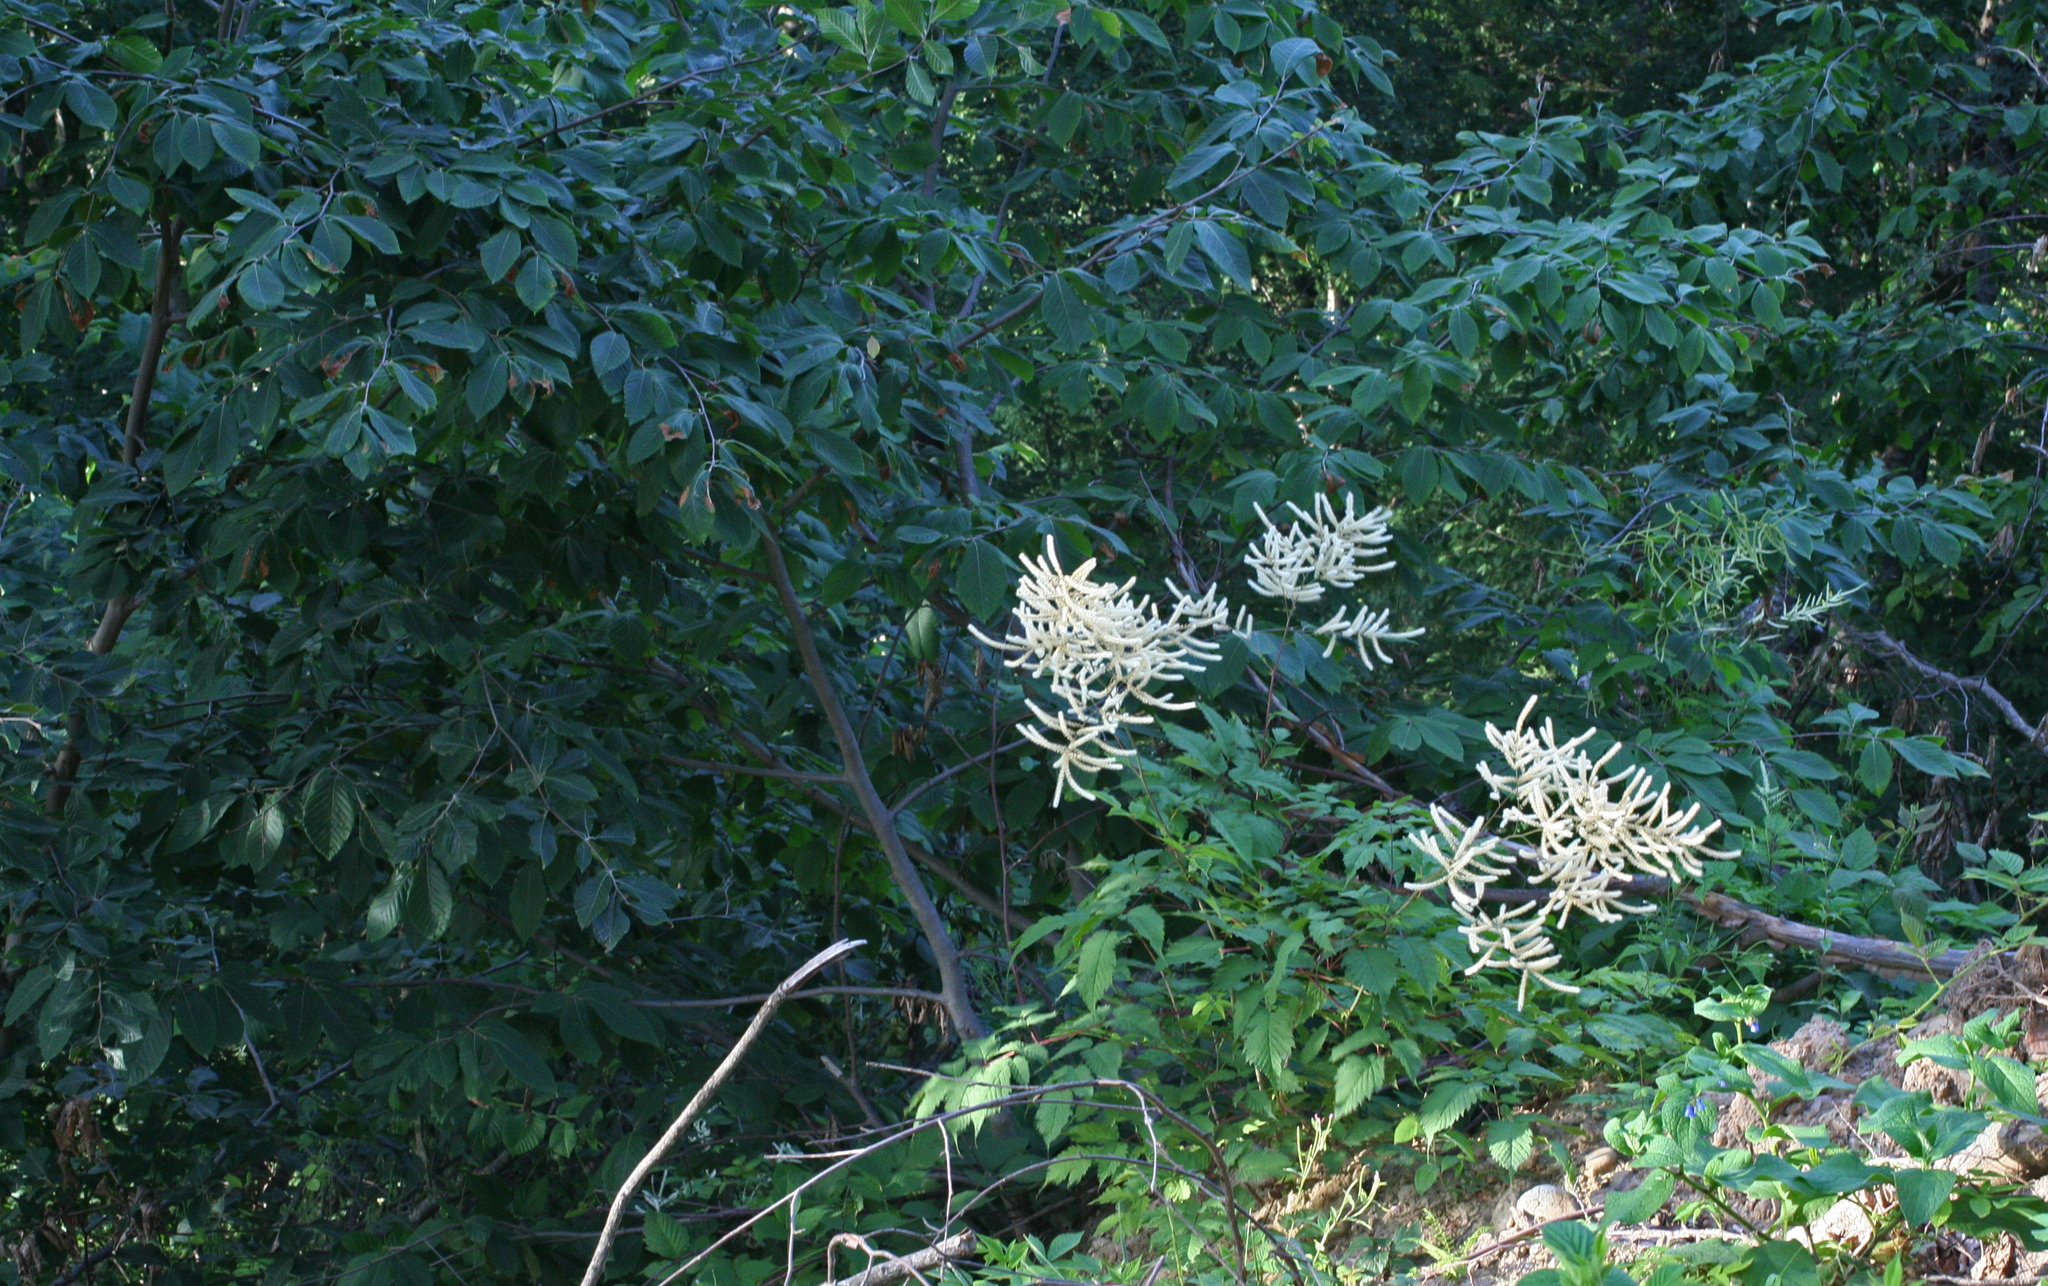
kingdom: Plantae
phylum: Tracheophyta
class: Magnoliopsida
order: Rosales
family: Rosaceae
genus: Aruncus
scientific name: Aruncus sylvester
